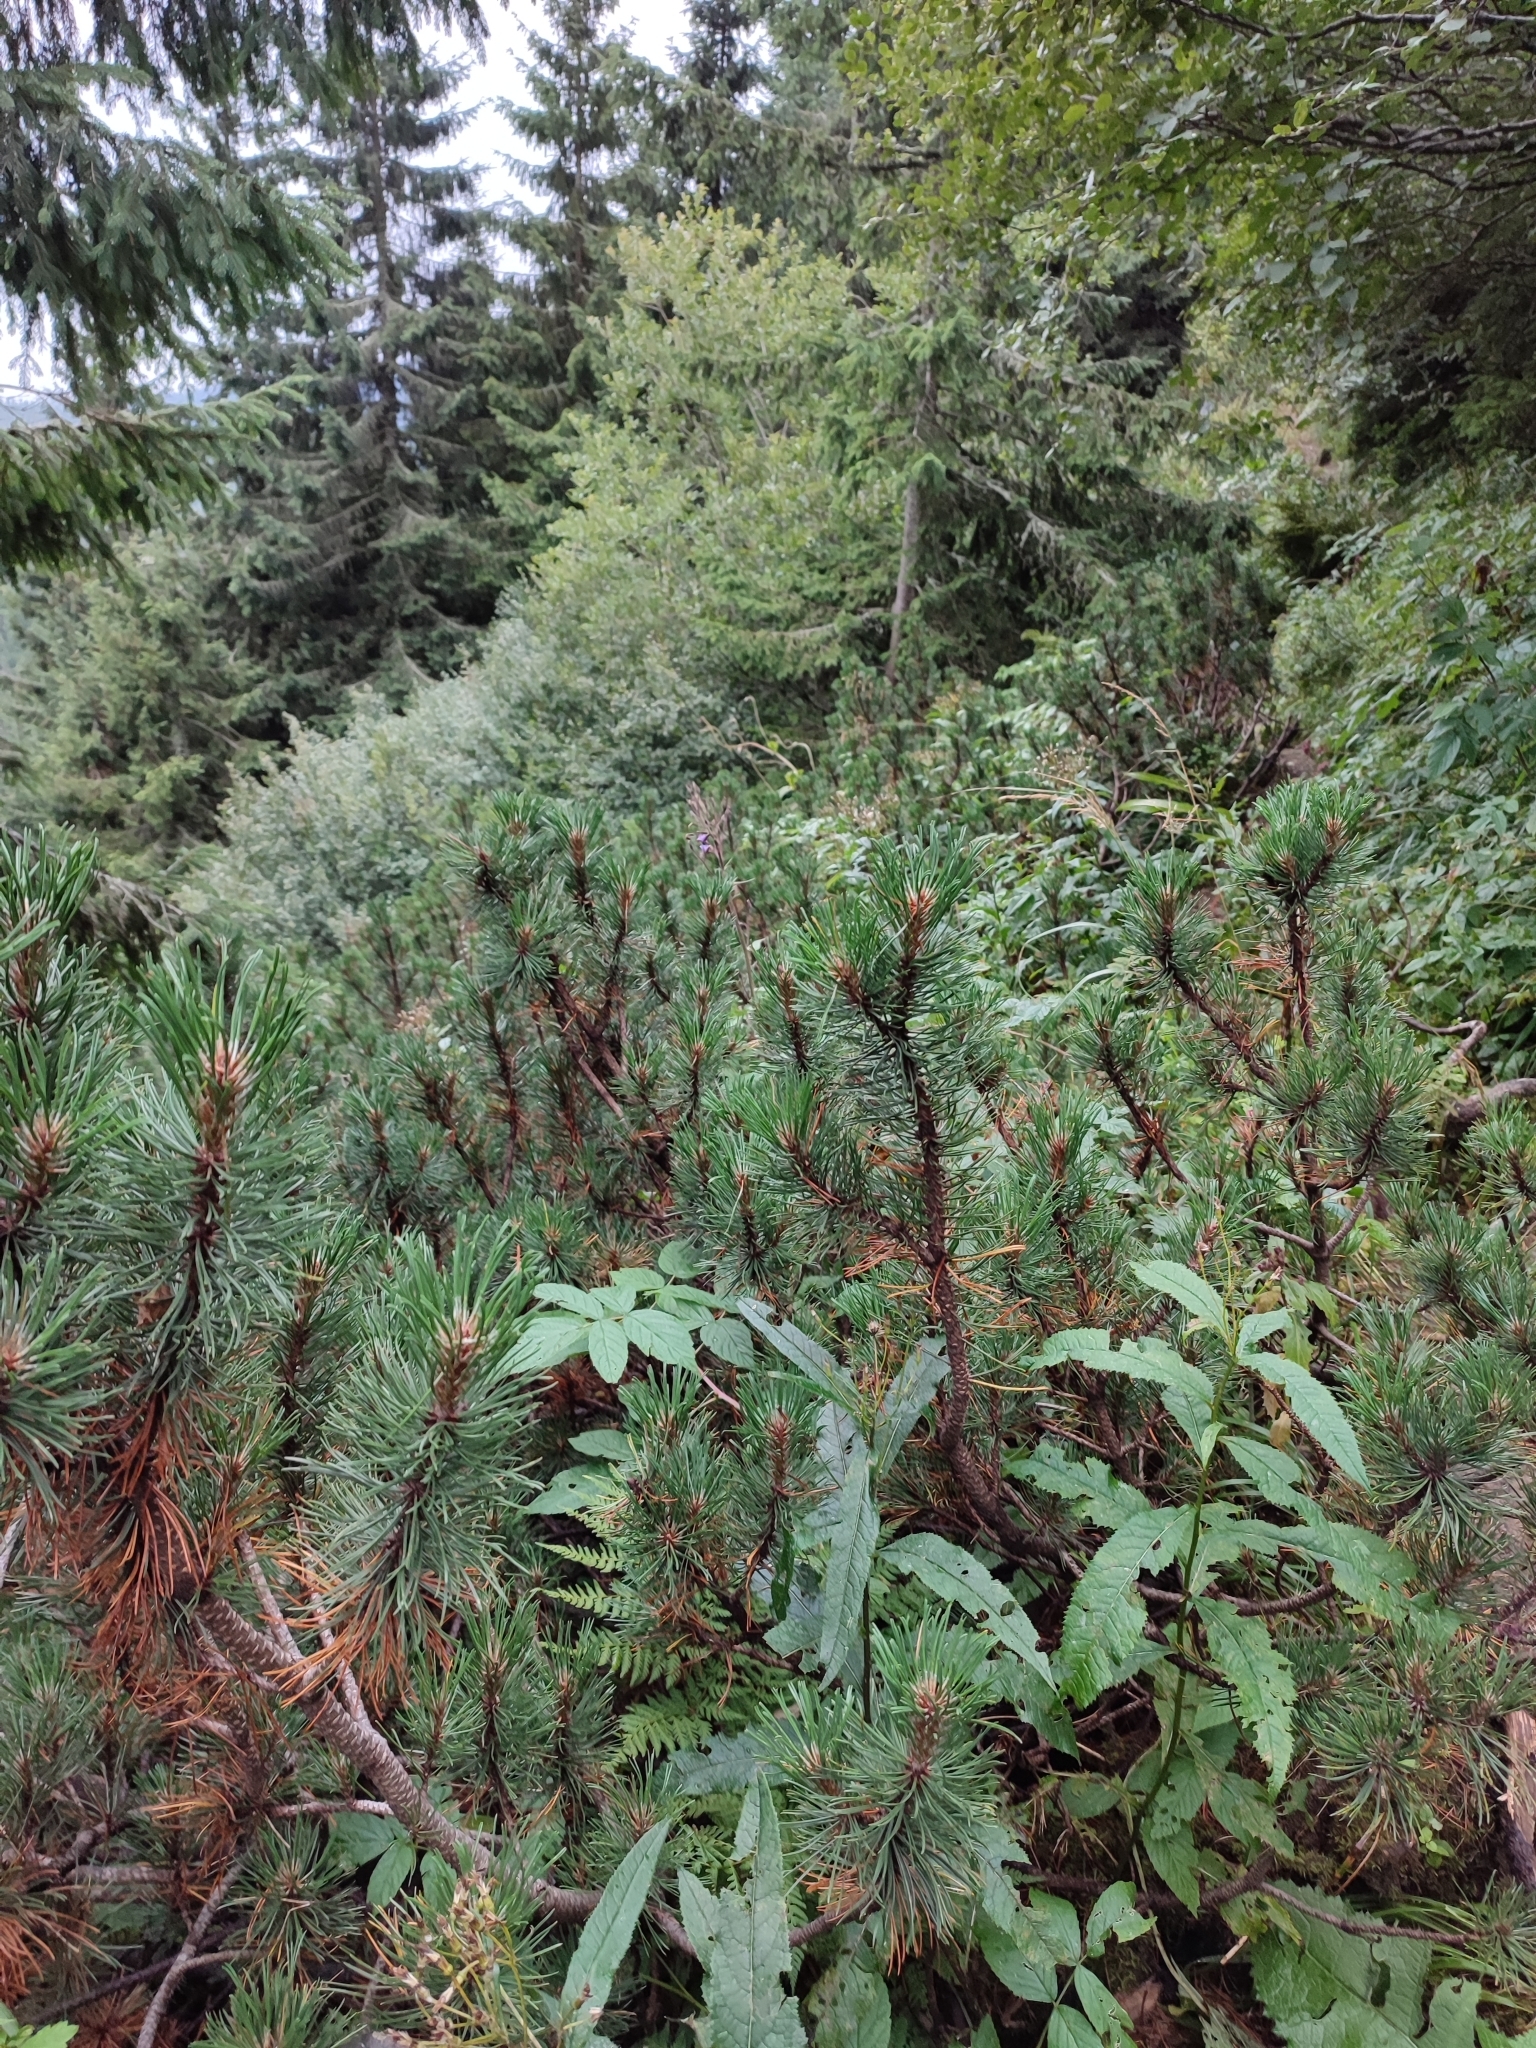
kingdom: Plantae
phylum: Tracheophyta
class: Pinopsida
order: Pinales
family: Pinaceae
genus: Pinus
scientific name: Pinus mugo
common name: Mugo pine
